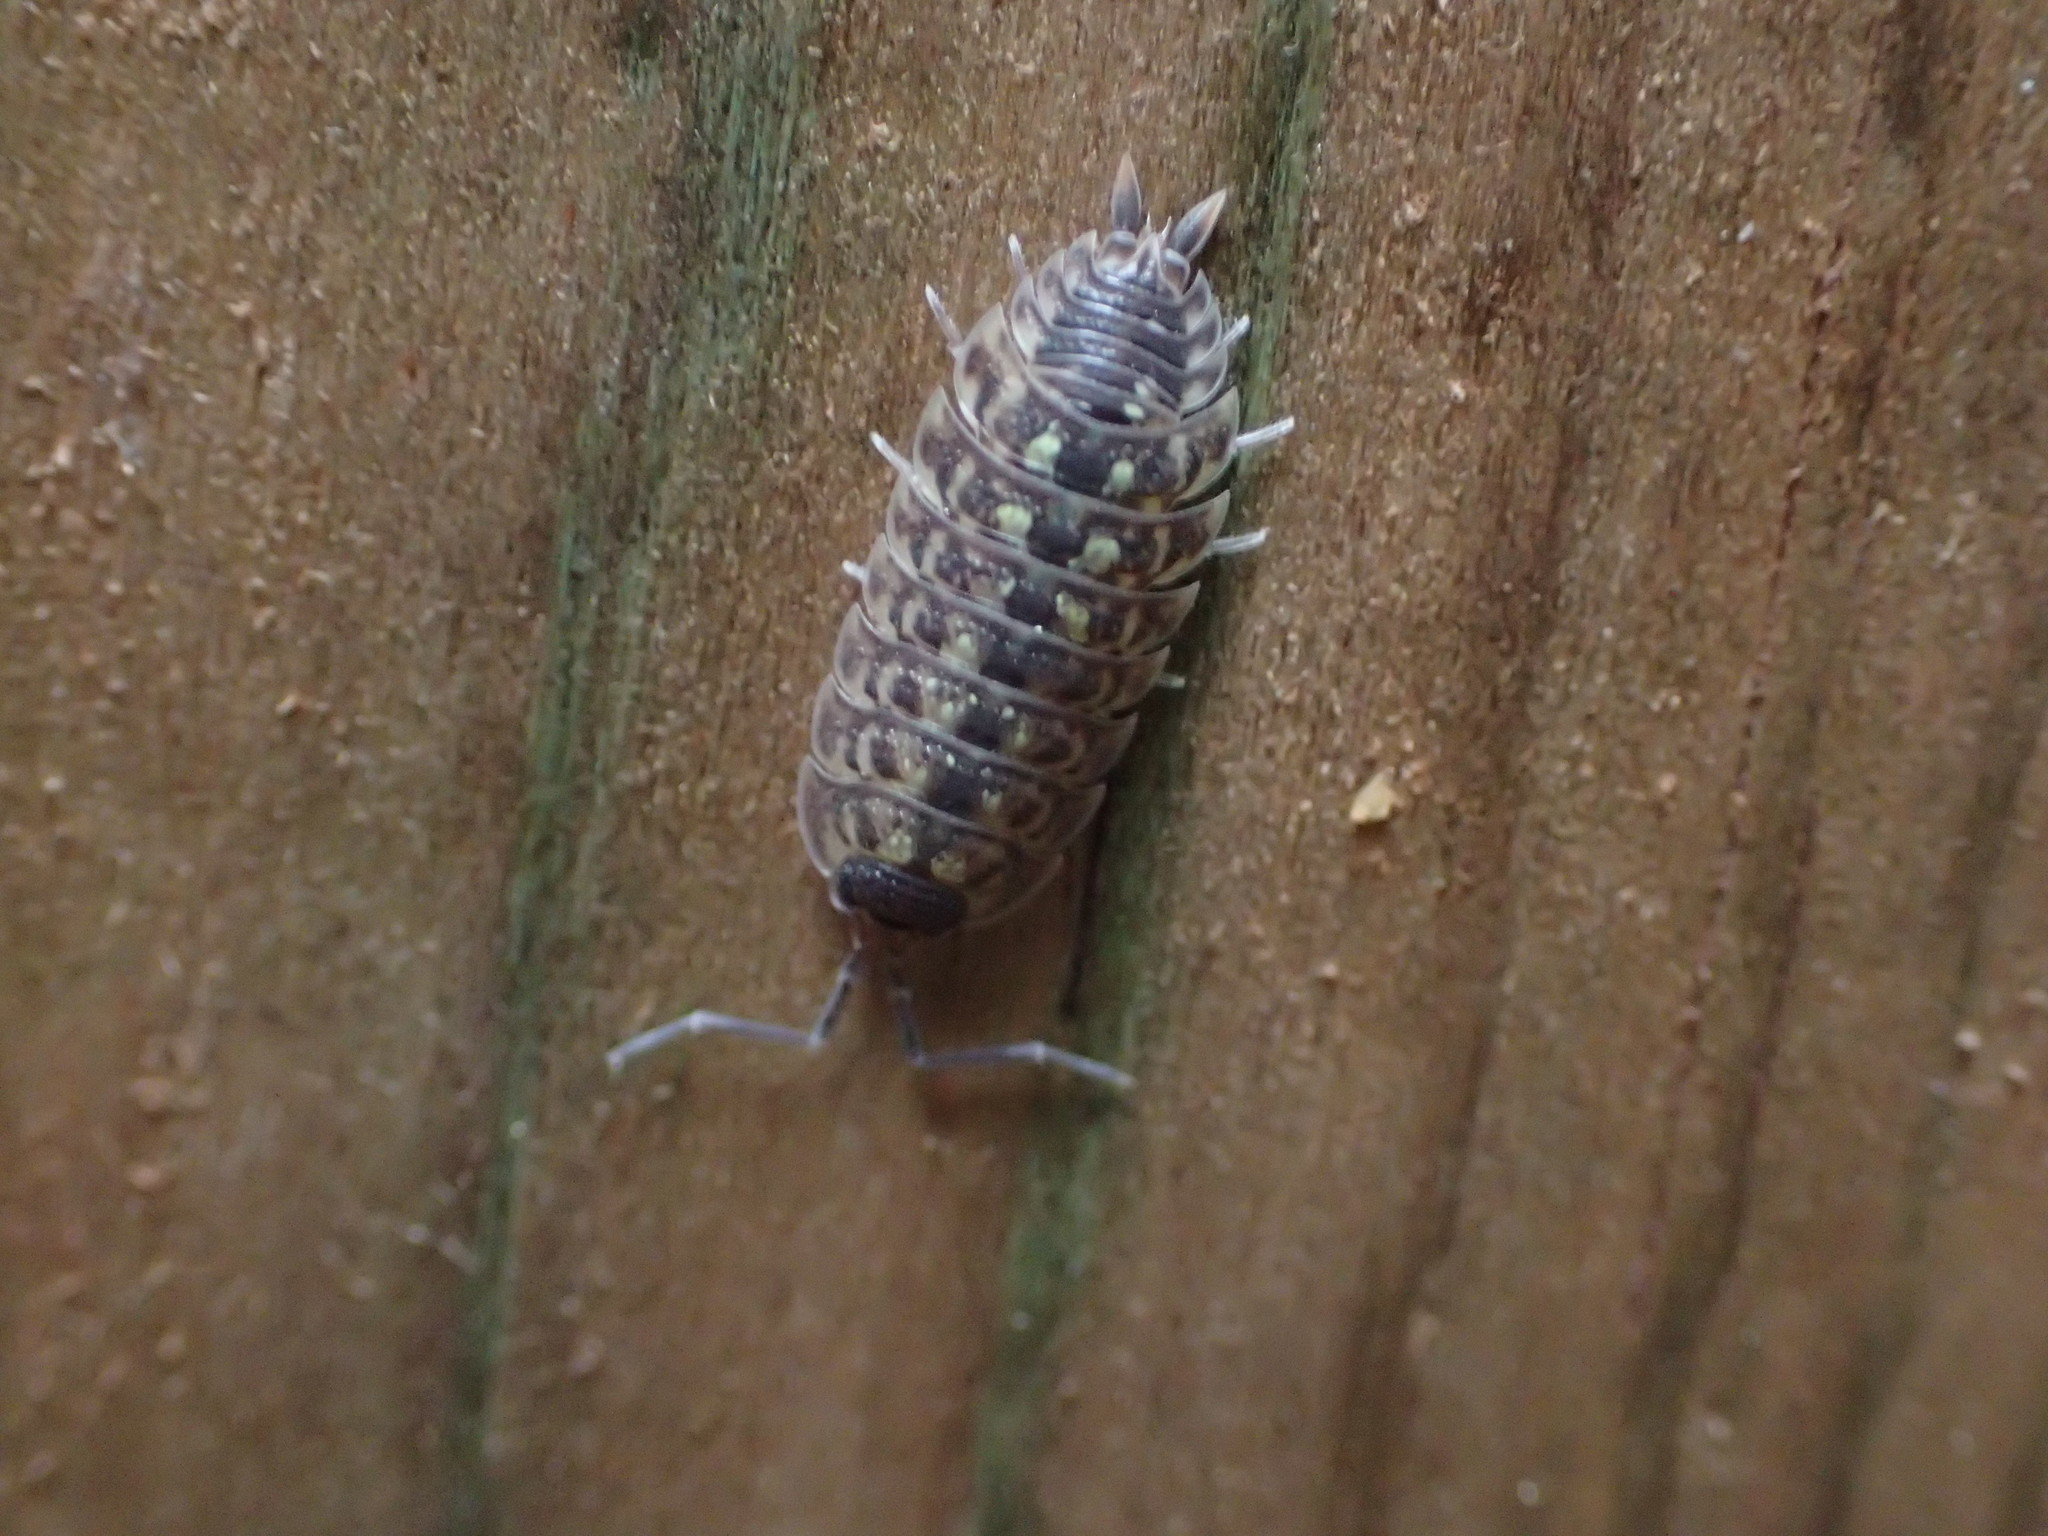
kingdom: Animalia
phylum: Arthropoda
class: Malacostraca
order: Isopoda
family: Porcellionidae
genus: Porcellio
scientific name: Porcellio spinicornis
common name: Painted woodlouse
